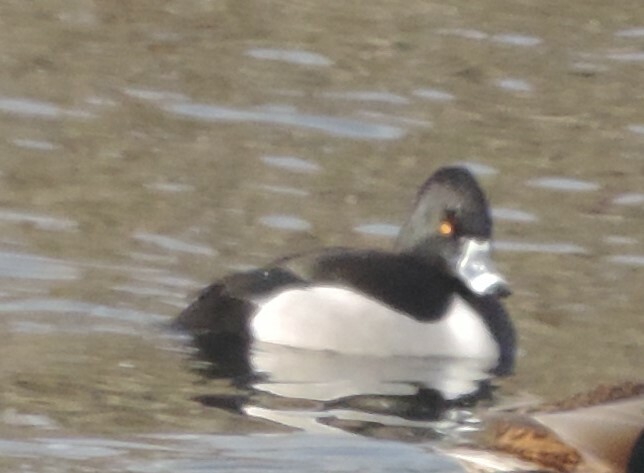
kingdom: Animalia
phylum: Chordata
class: Aves
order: Anseriformes
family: Anatidae
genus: Aythya
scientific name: Aythya collaris
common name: Ring-necked duck
